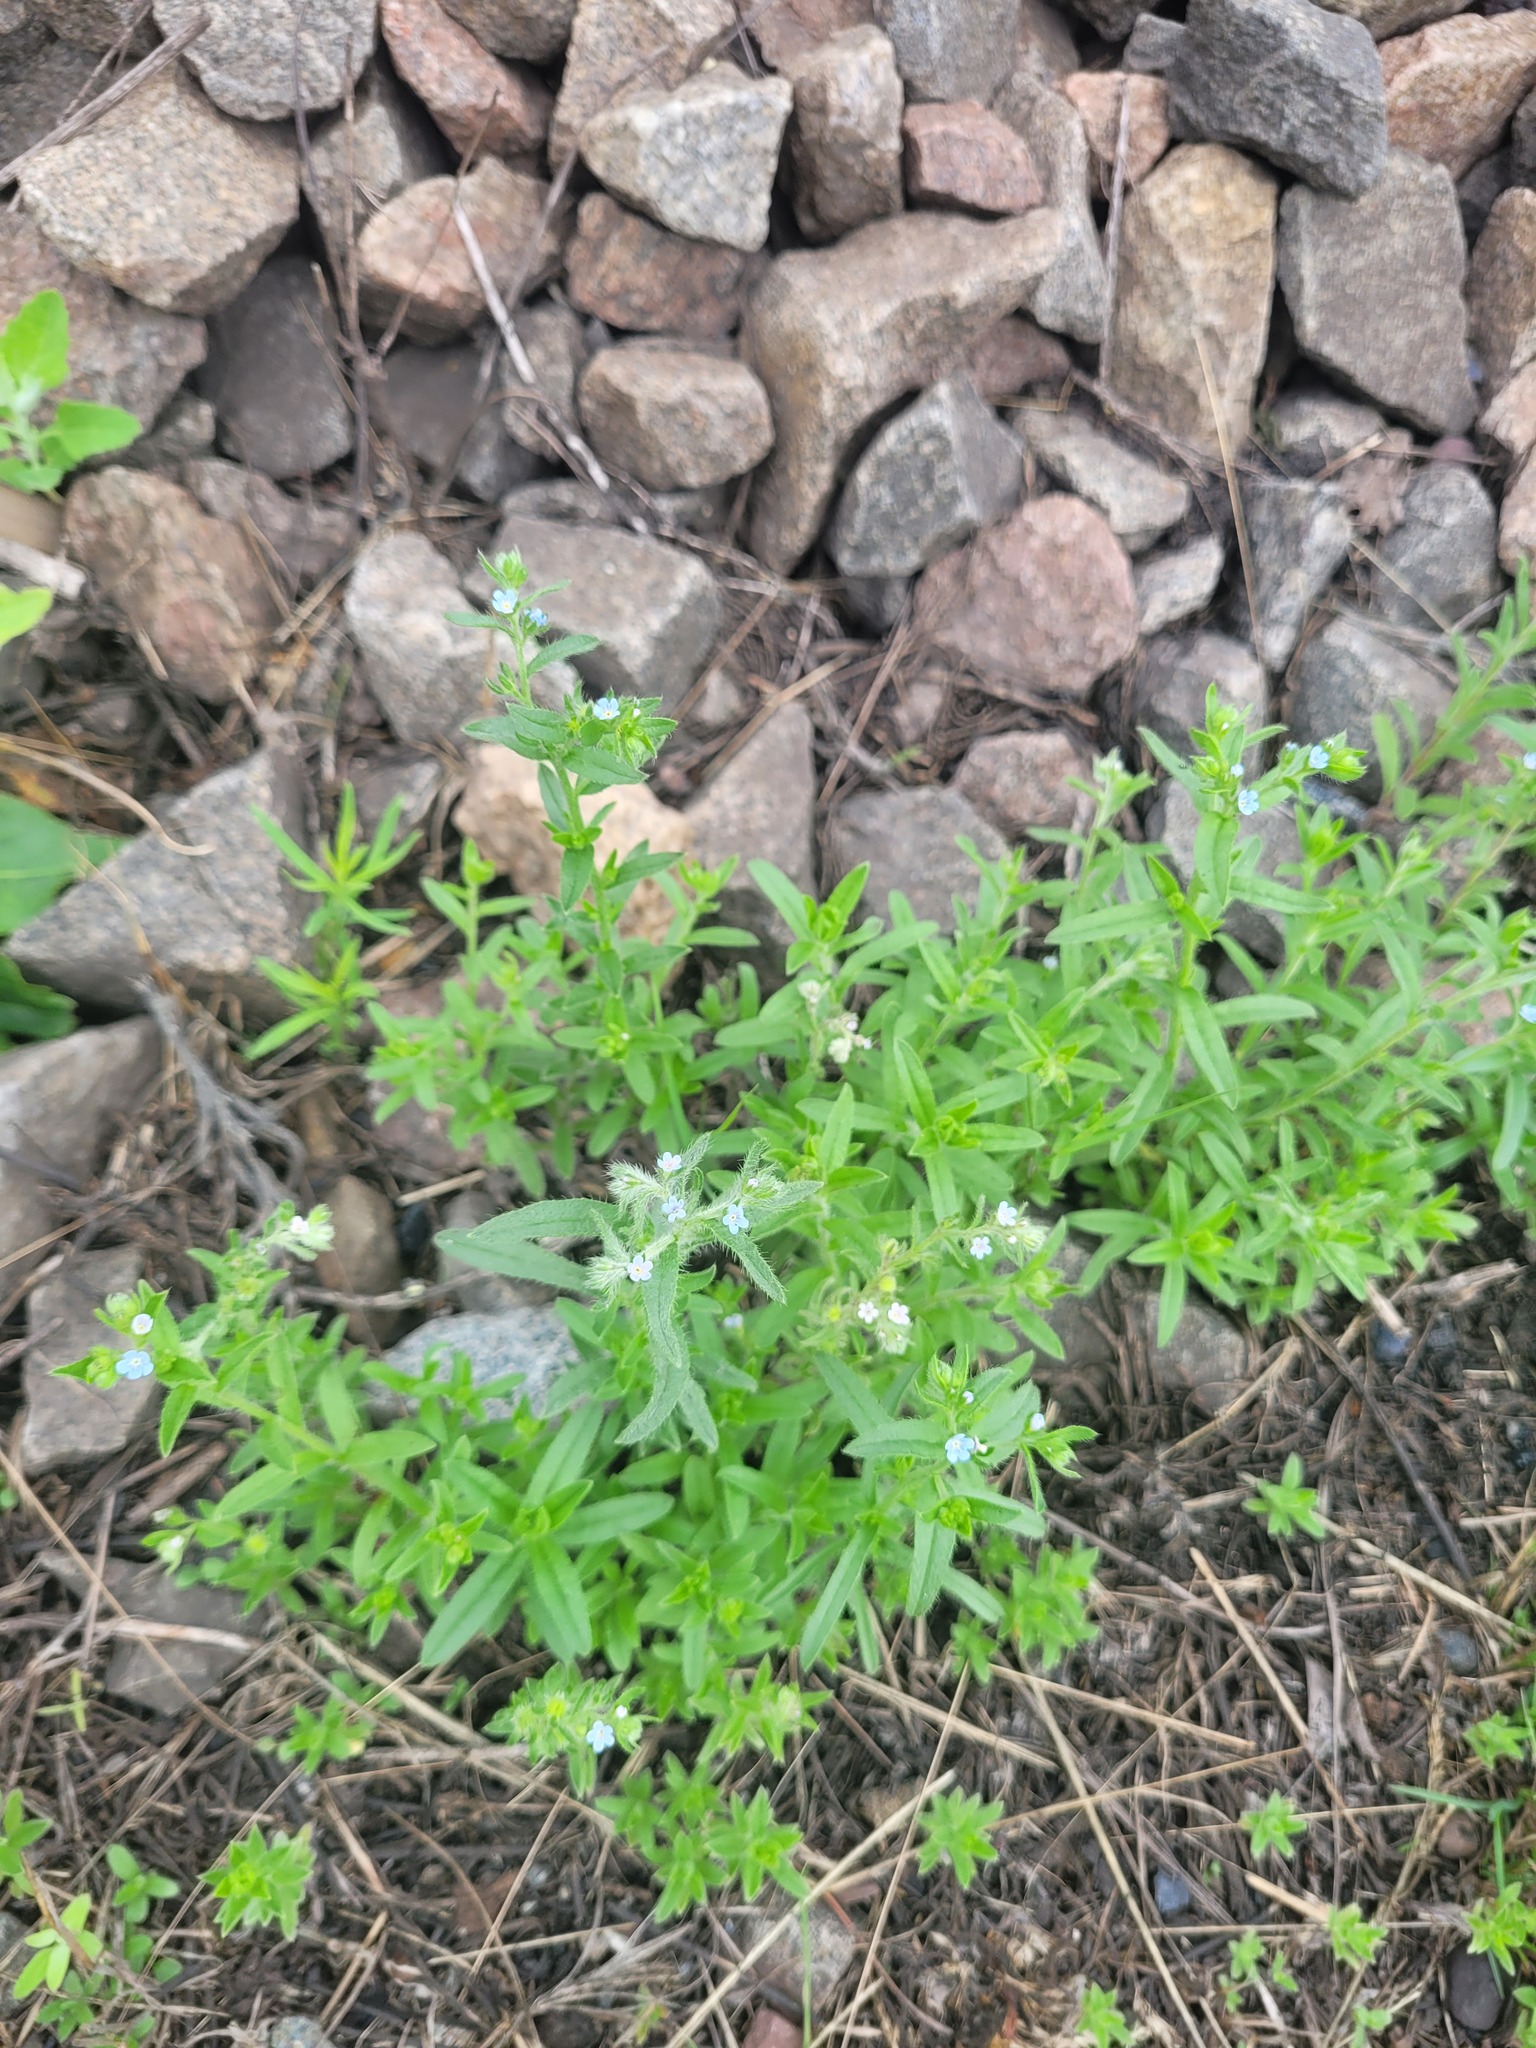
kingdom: Plantae
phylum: Tracheophyta
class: Magnoliopsida
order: Boraginales
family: Boraginaceae
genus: Lappula
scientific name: Lappula squarrosa
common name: European stickseed
